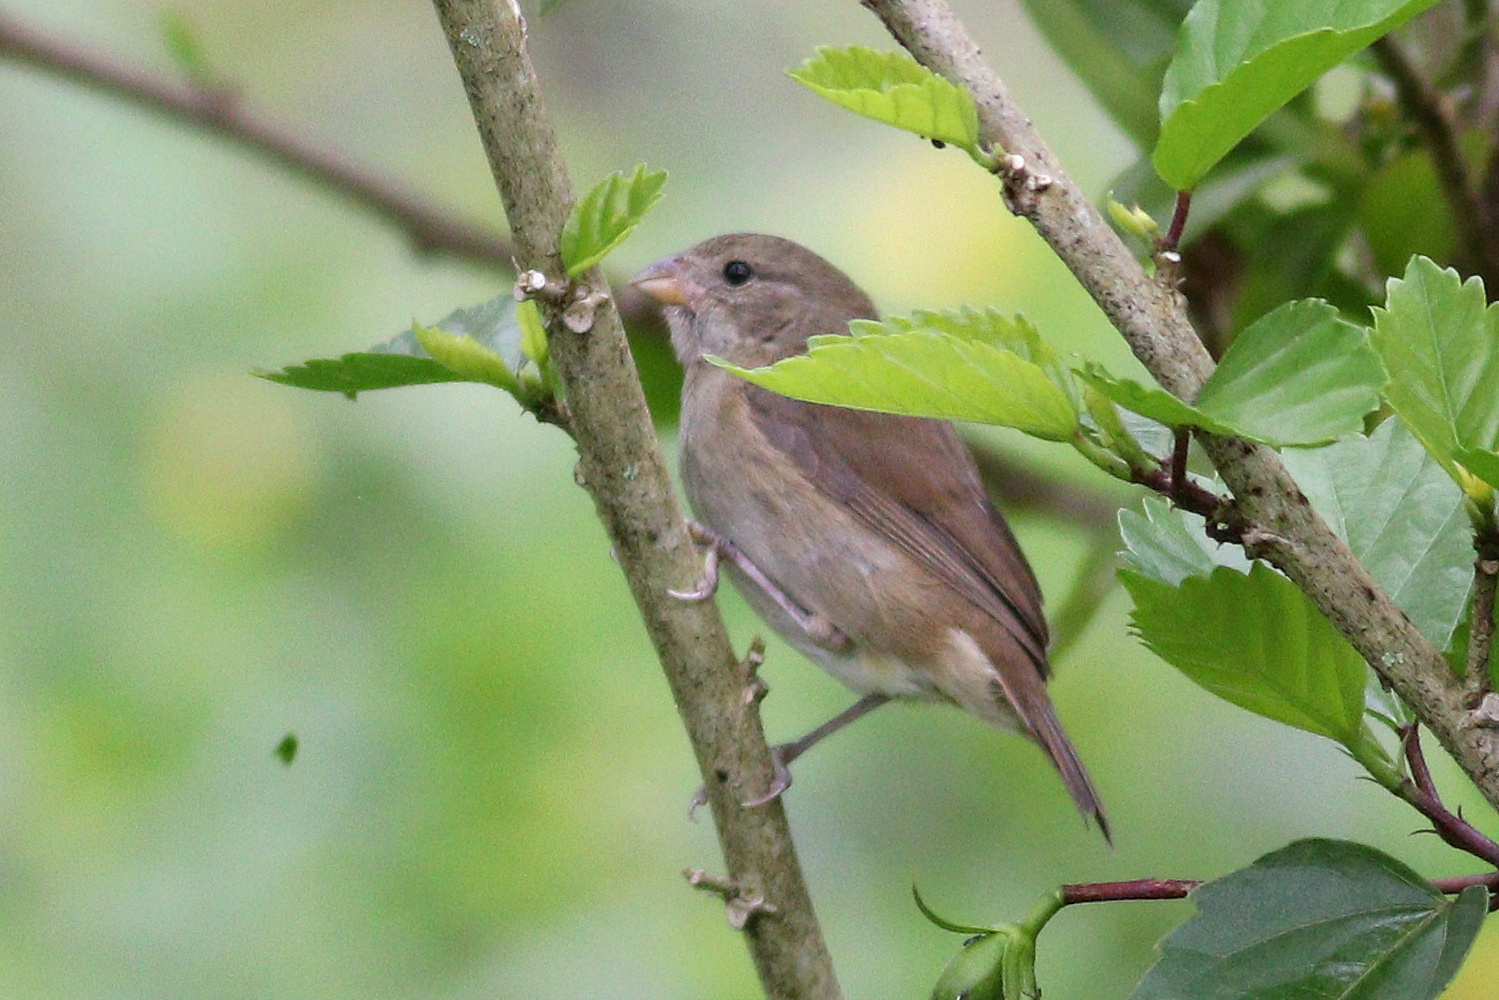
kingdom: Animalia
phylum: Chordata
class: Aves
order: Passeriformes
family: Thraupidae
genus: Asemospiza
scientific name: Asemospiza obscura
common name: Dull-colored grassquit
